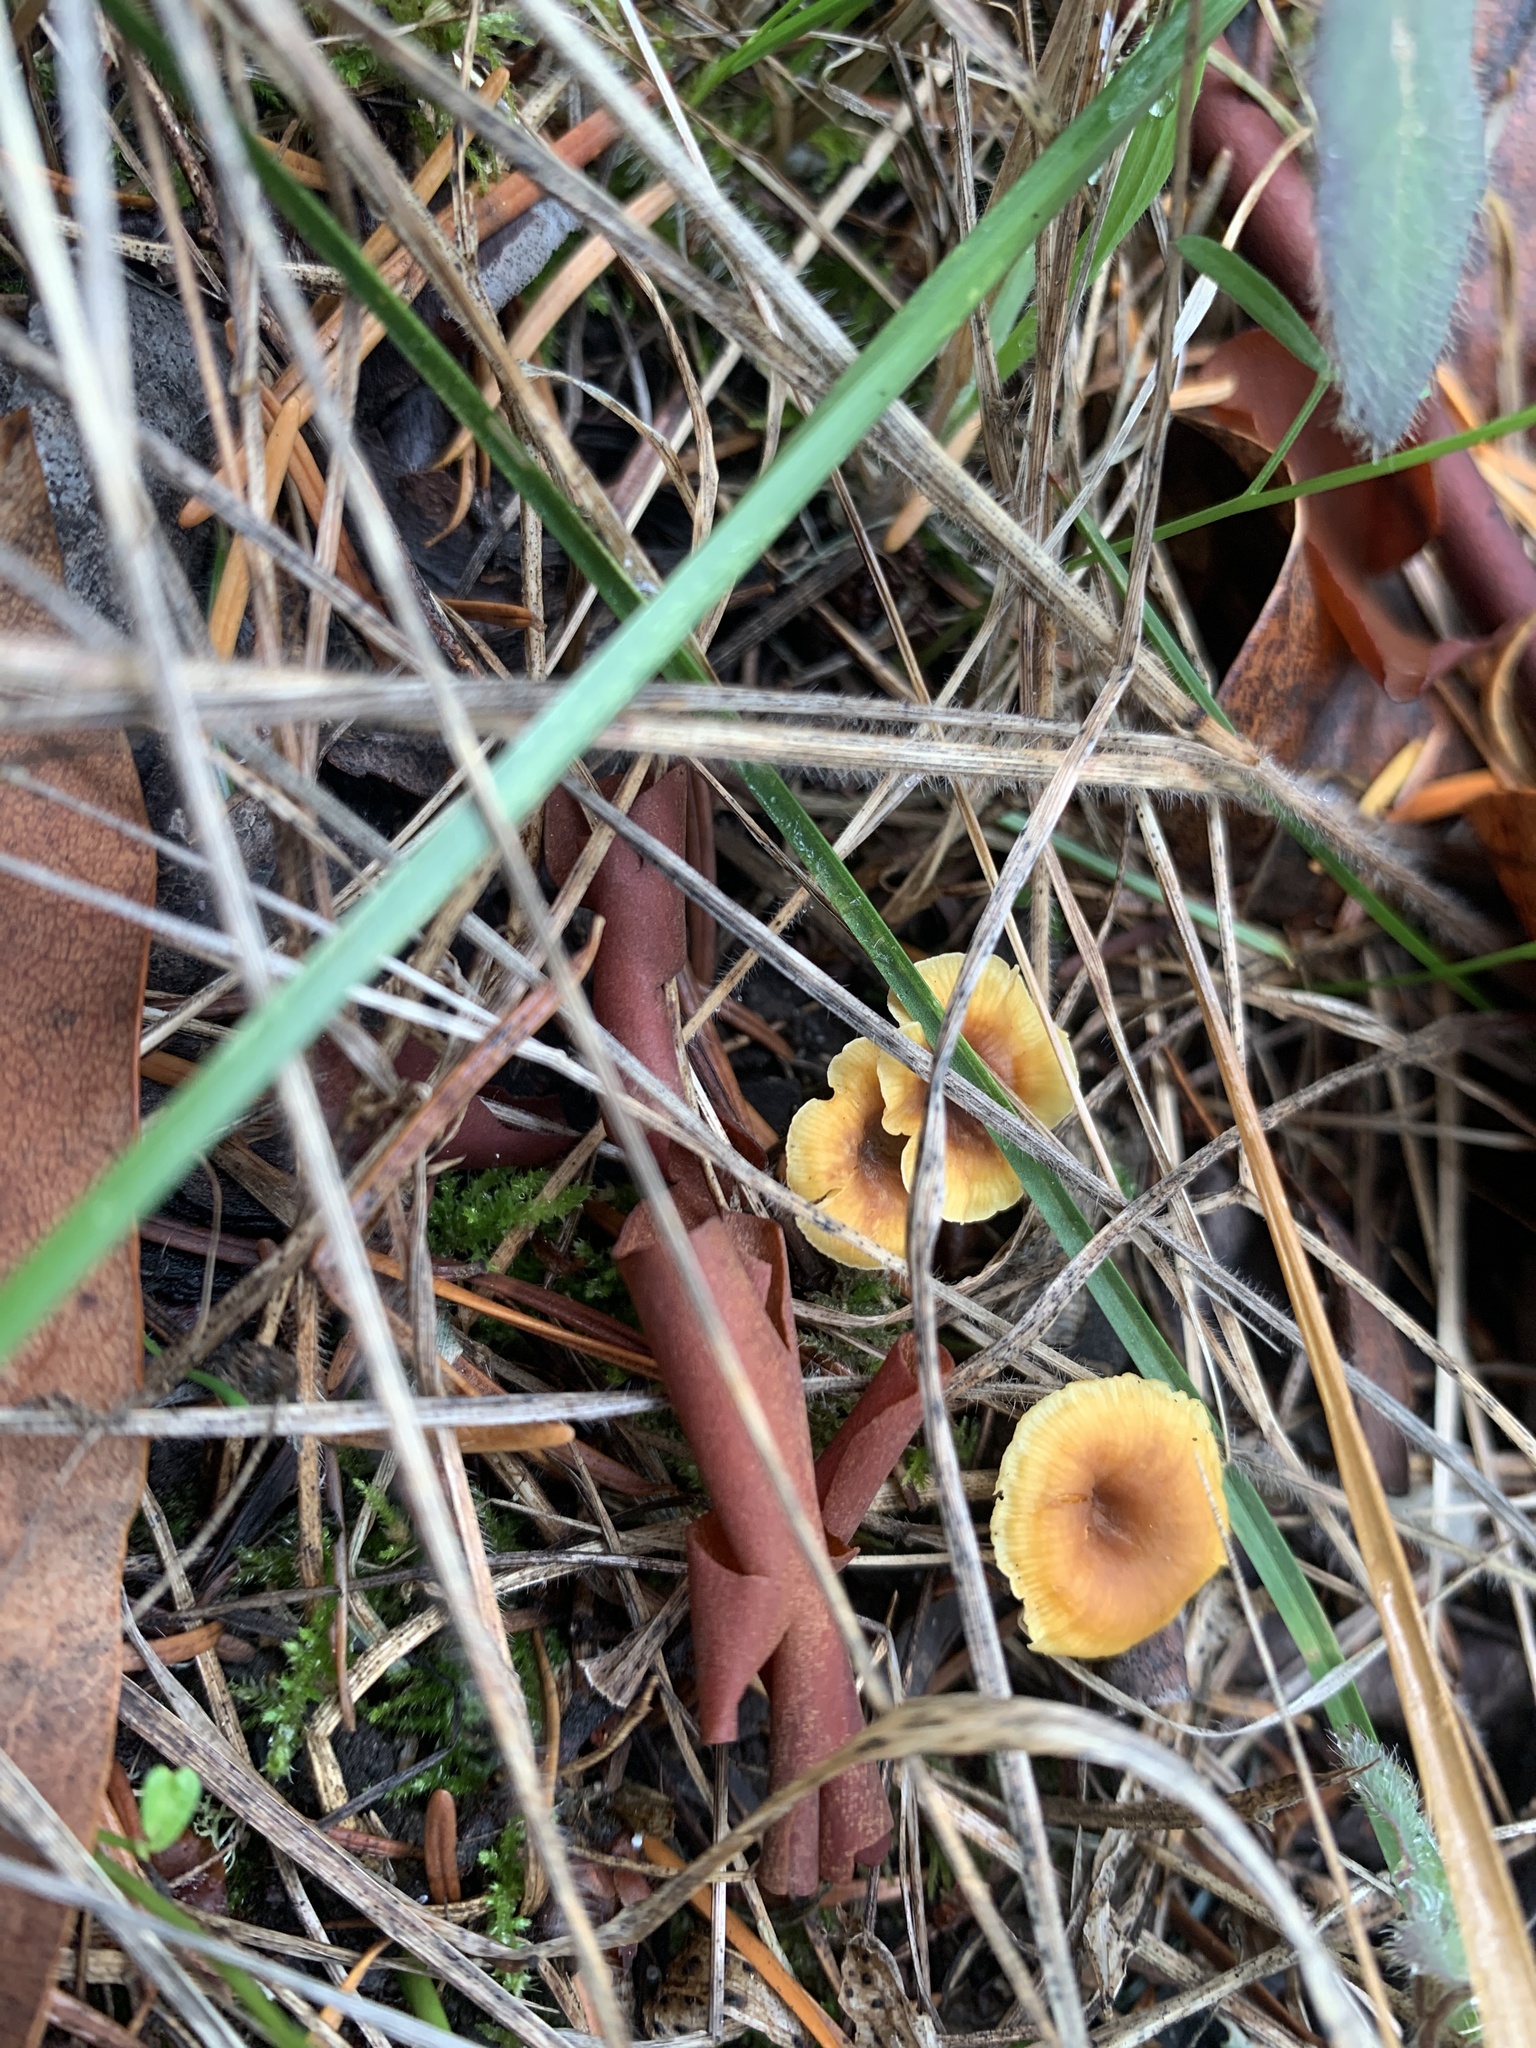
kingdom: Fungi
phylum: Basidiomycota
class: Agaricomycetes
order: Agaricales
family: Mycenaceae
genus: Xeromphalina
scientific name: Xeromphalina cauticinalis
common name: Pinelitter gingertail
